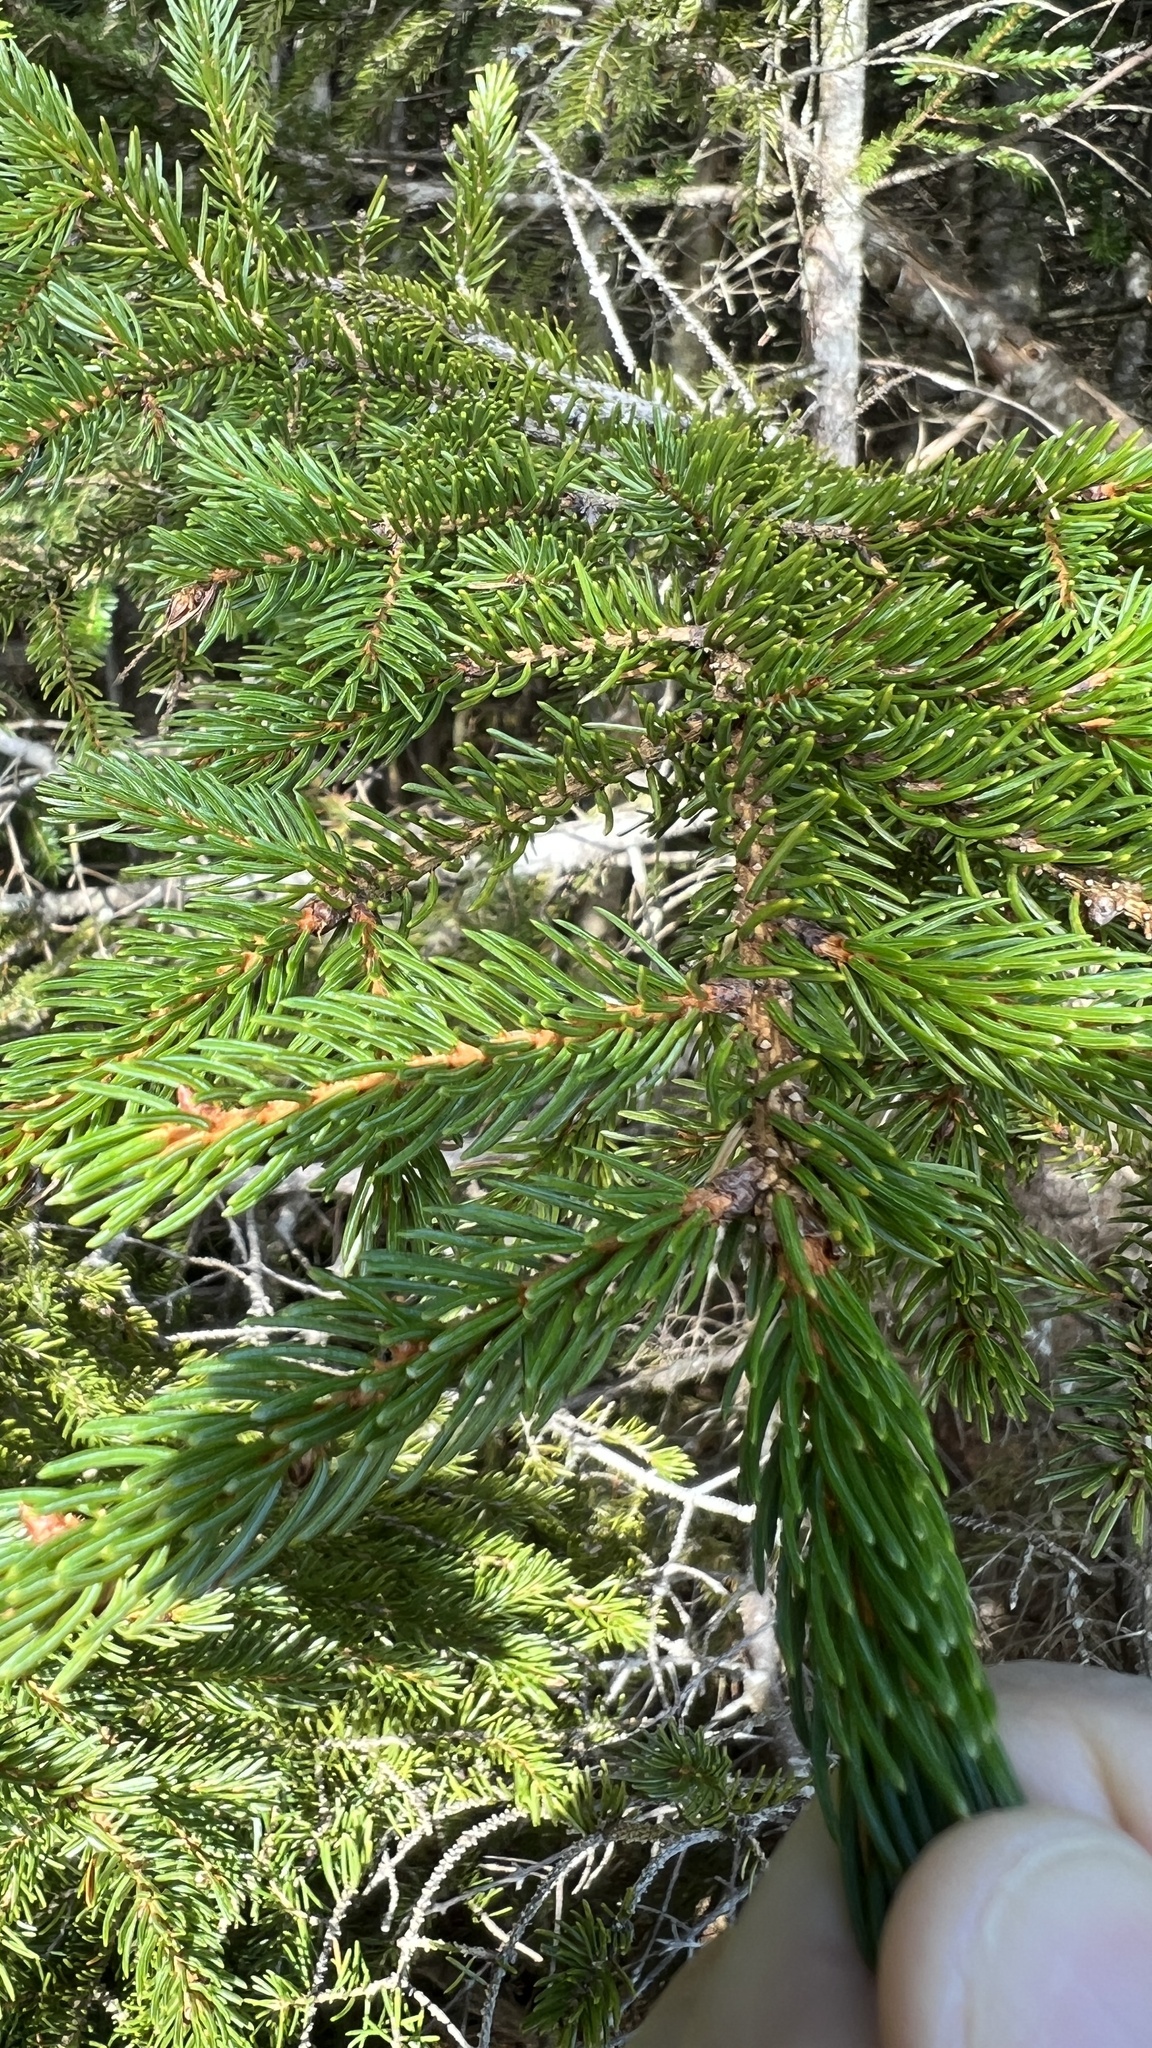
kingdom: Plantae
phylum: Tracheophyta
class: Pinopsida
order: Pinales
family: Pinaceae
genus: Picea
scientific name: Picea rubens
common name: Red spruce
